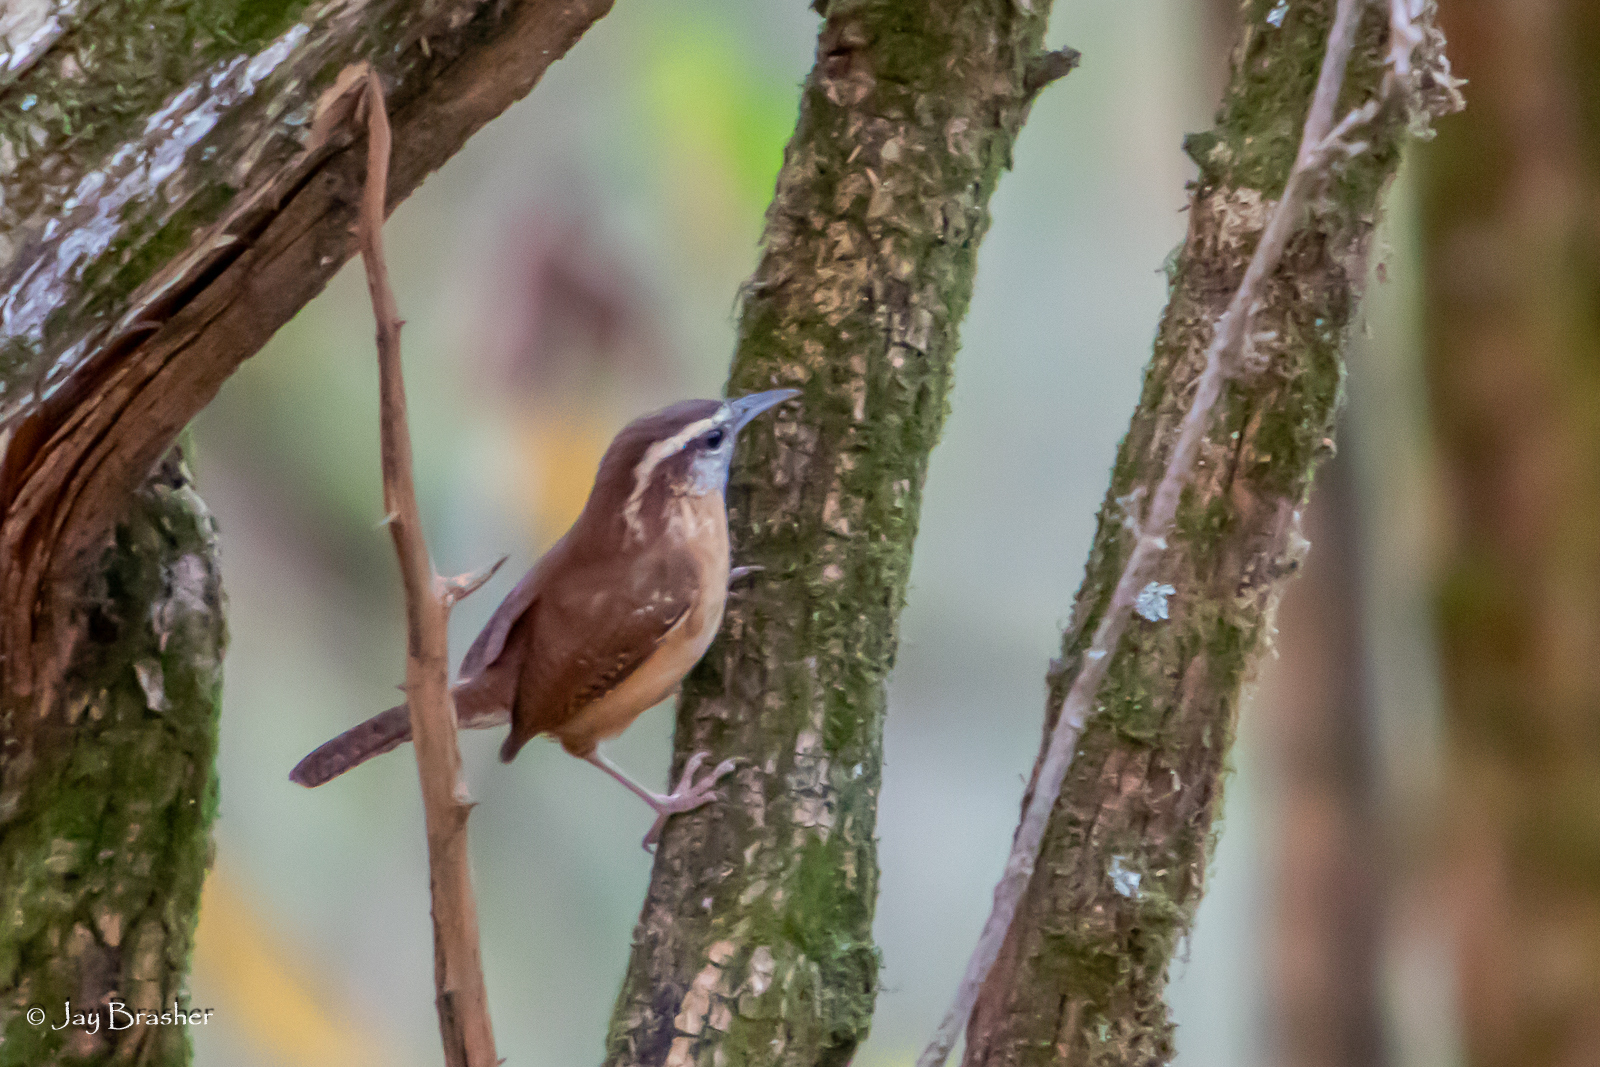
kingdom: Animalia
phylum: Chordata
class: Aves
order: Passeriformes
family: Troglodytidae
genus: Thryothorus
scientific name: Thryothorus ludovicianus
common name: Carolina wren
